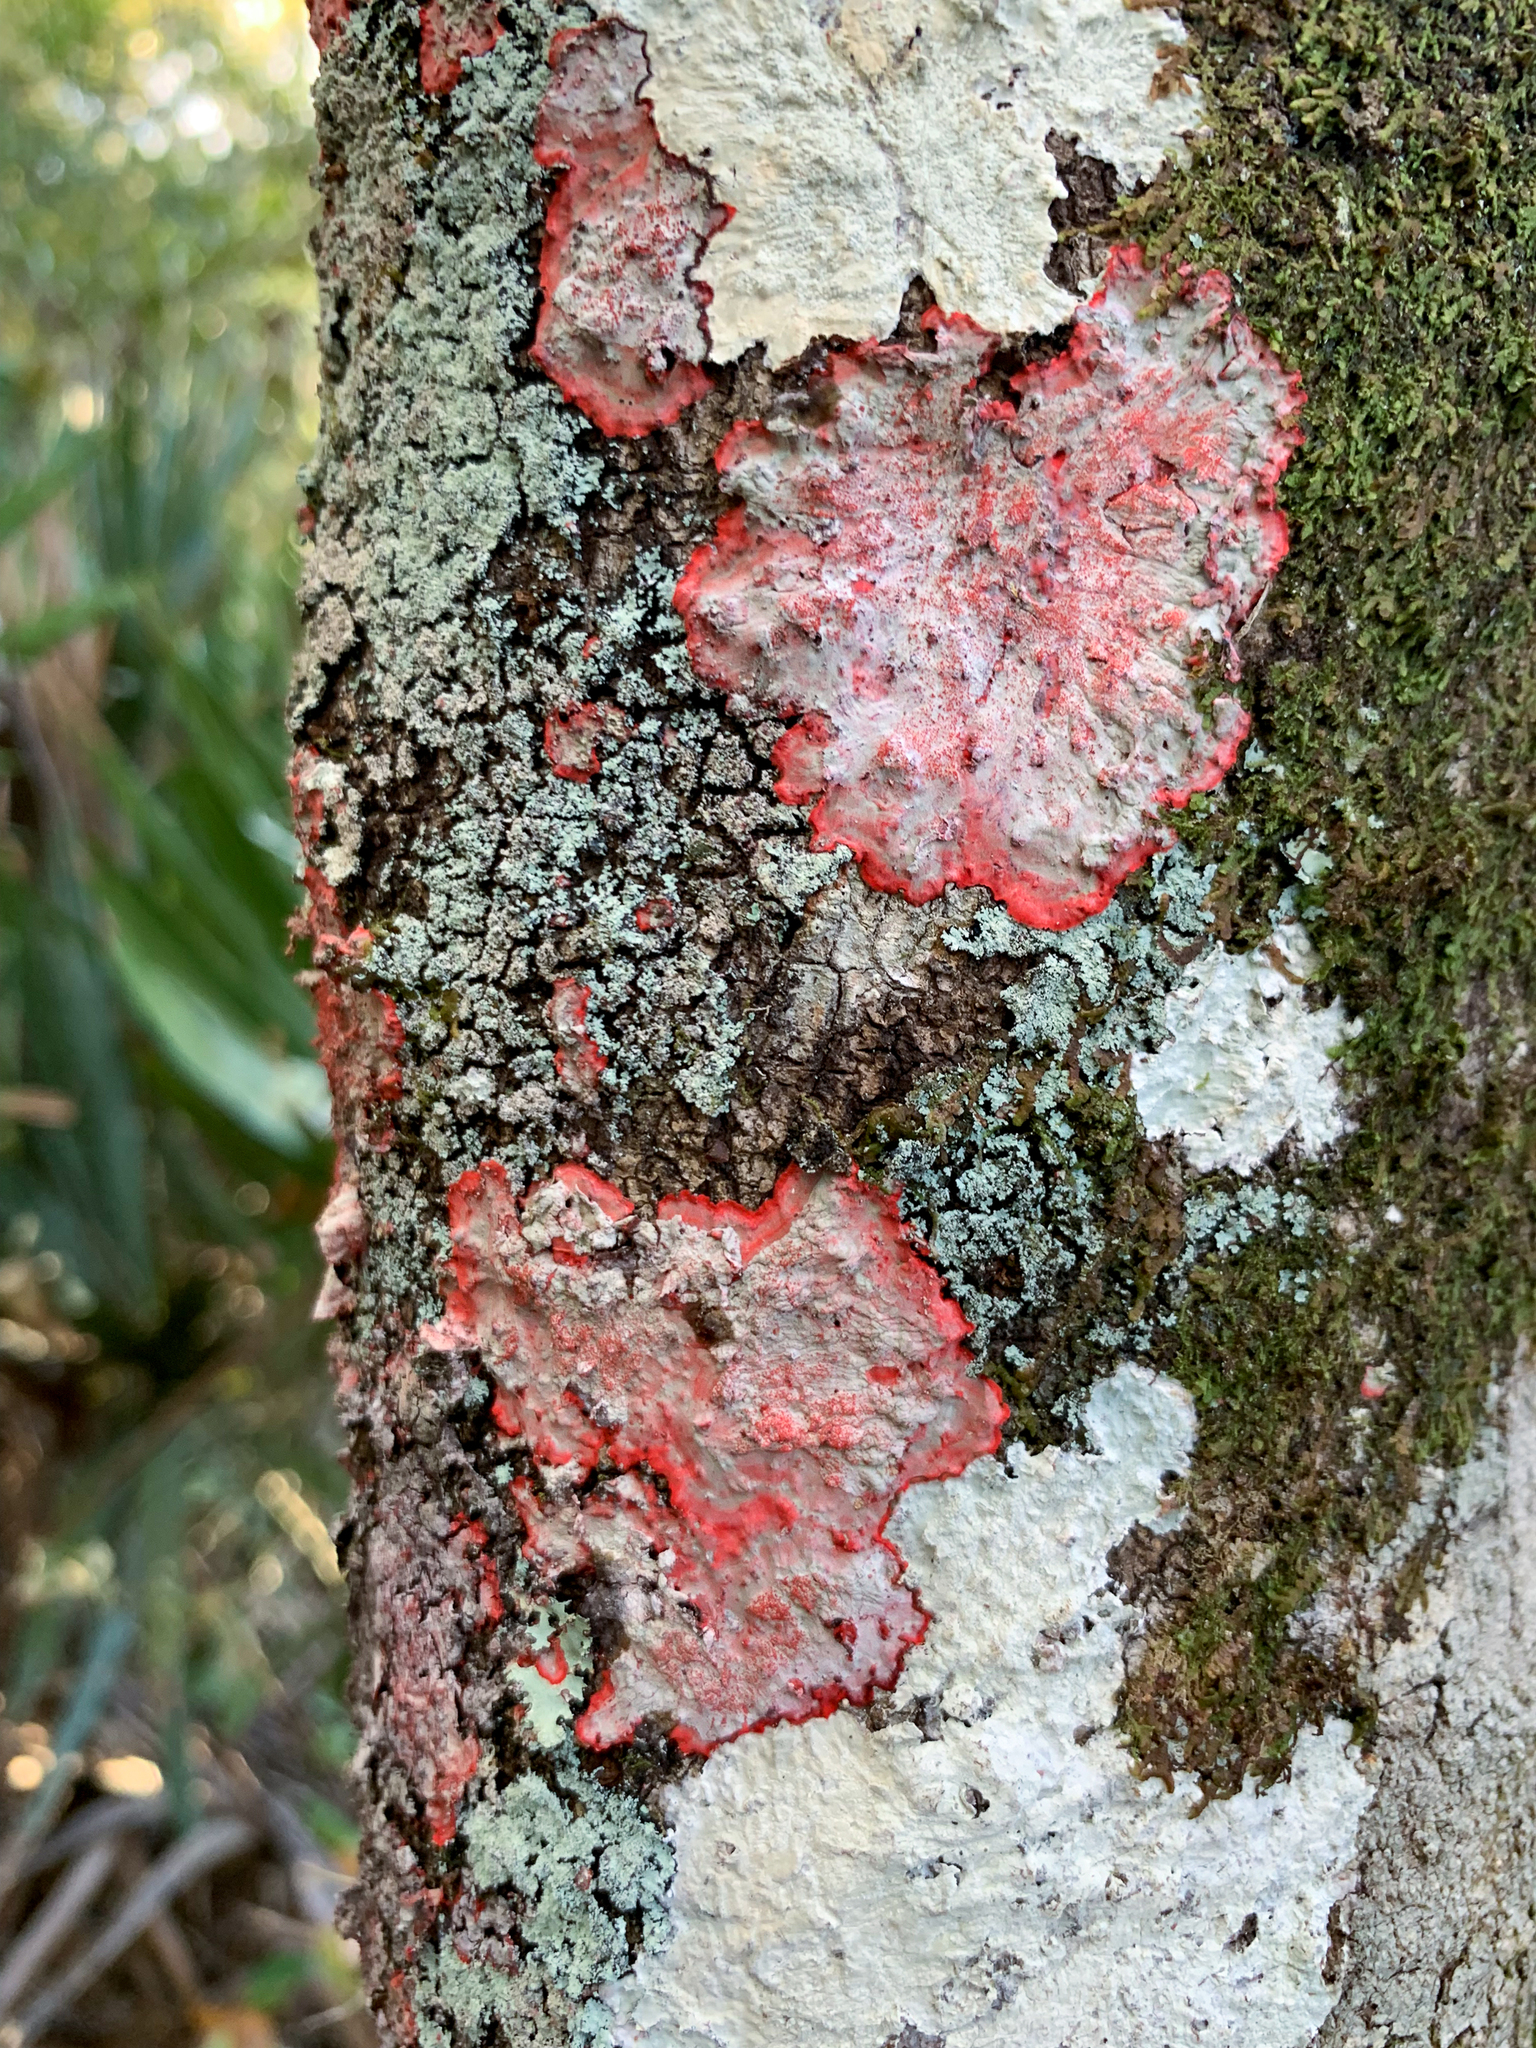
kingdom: Fungi
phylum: Ascomycota
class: Arthoniomycetes
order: Arthoniales
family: Arthoniaceae
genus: Herpothallon
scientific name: Herpothallon rubrocinctum
